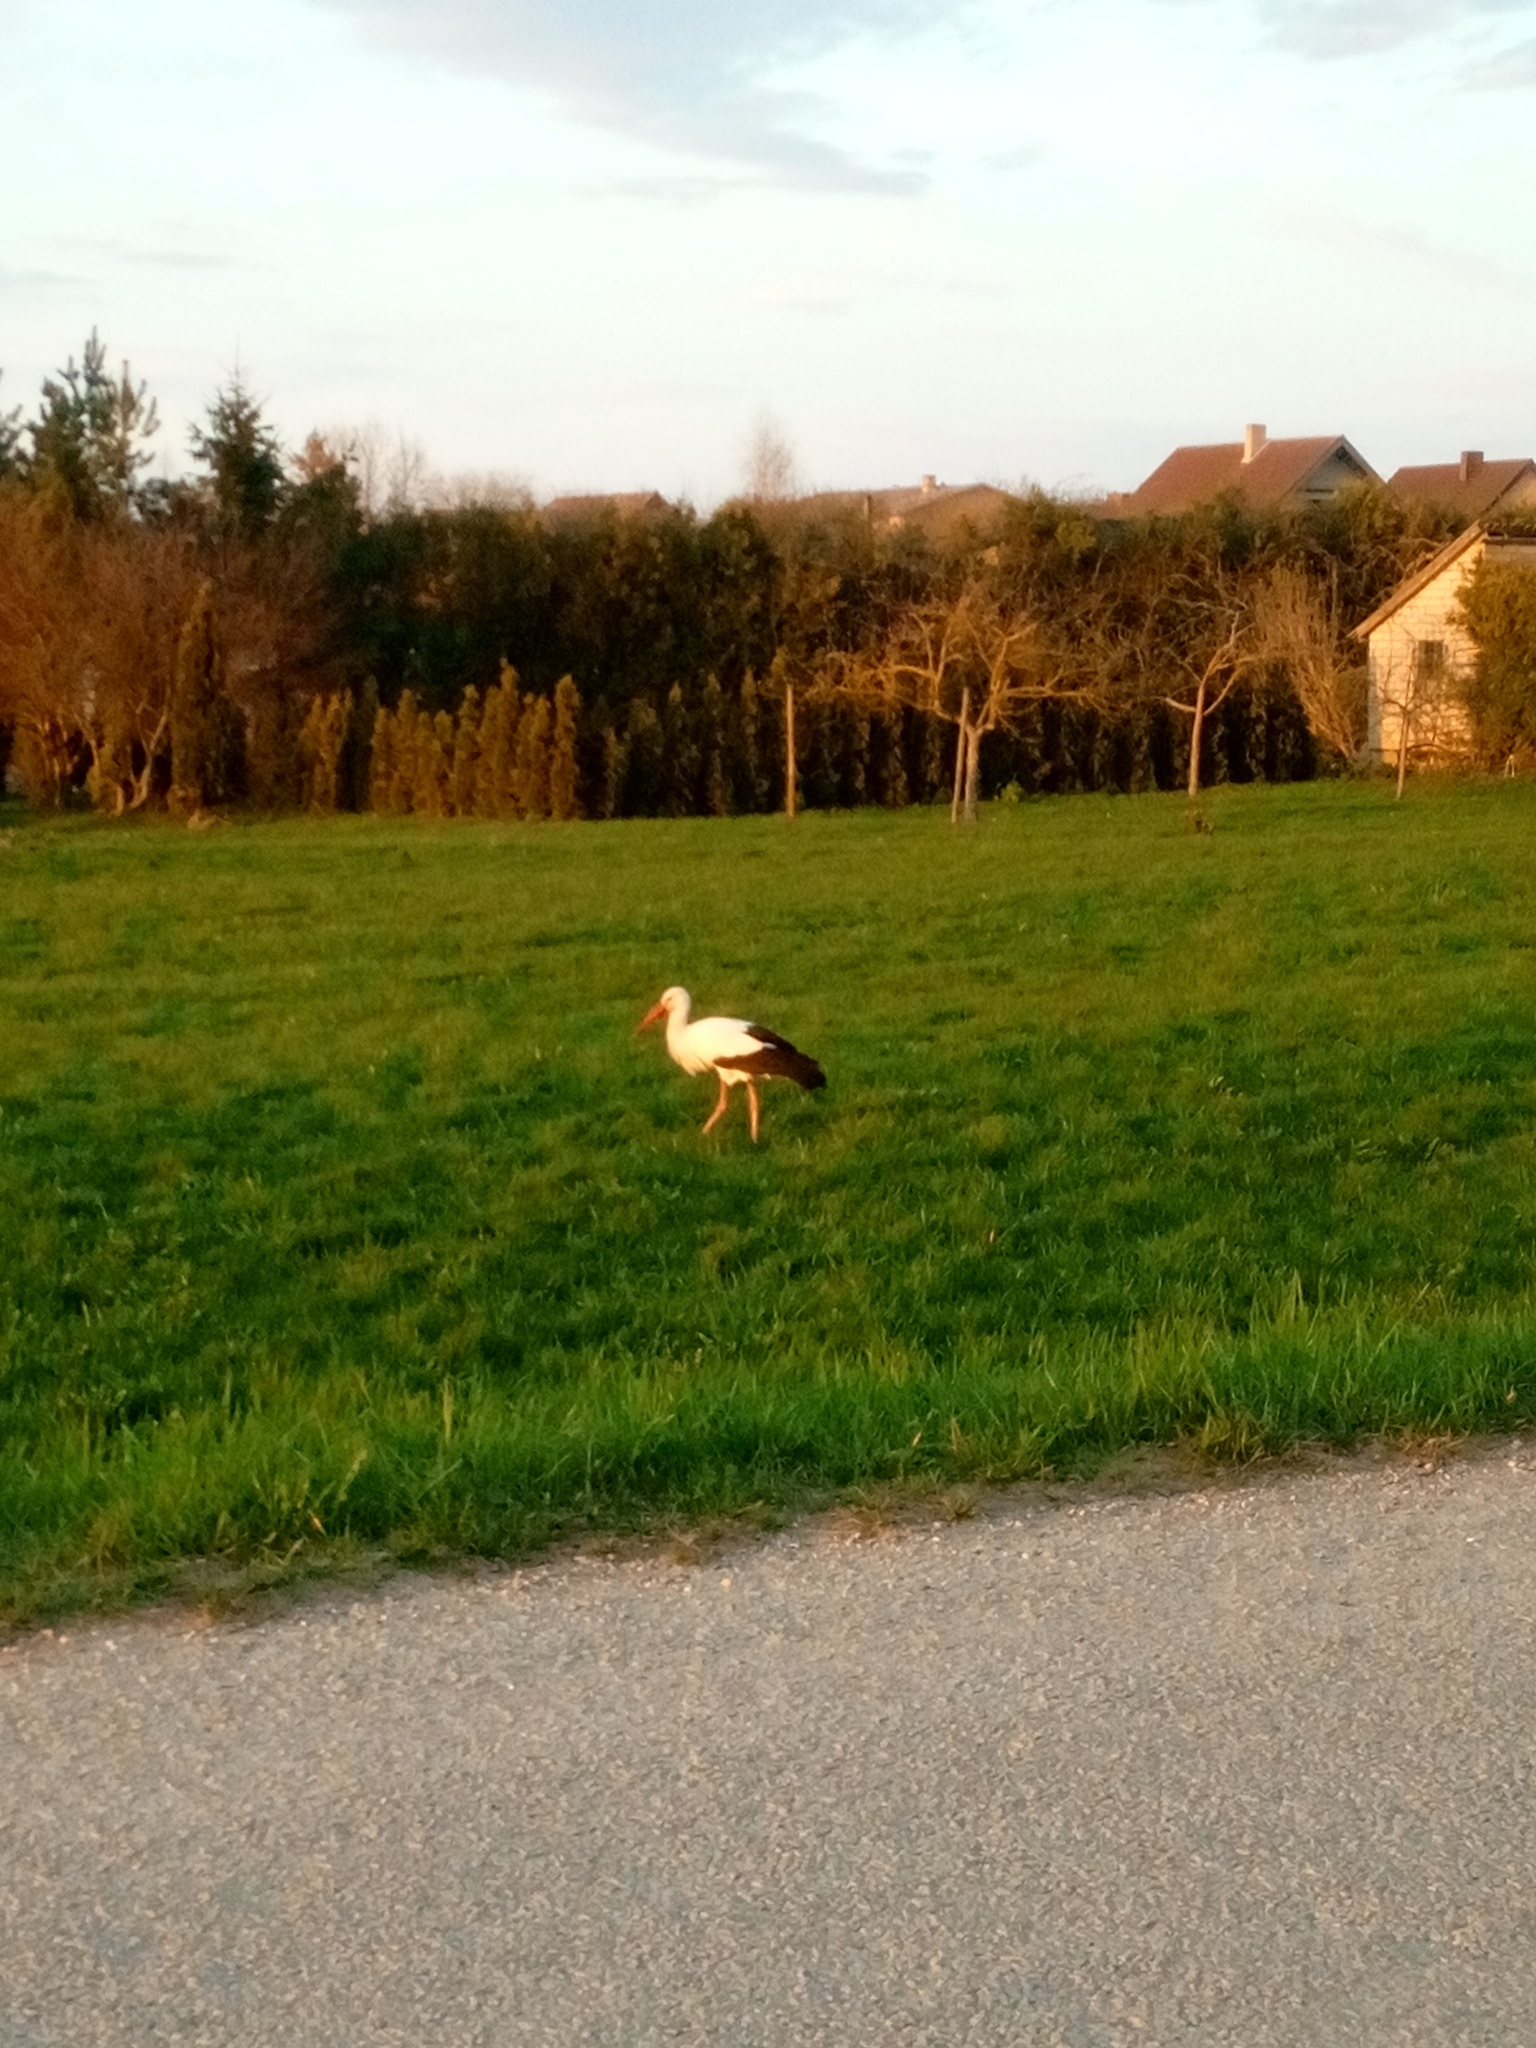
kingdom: Animalia
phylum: Chordata
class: Aves
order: Ciconiiformes
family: Ciconiidae
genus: Ciconia
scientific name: Ciconia ciconia
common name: White stork
